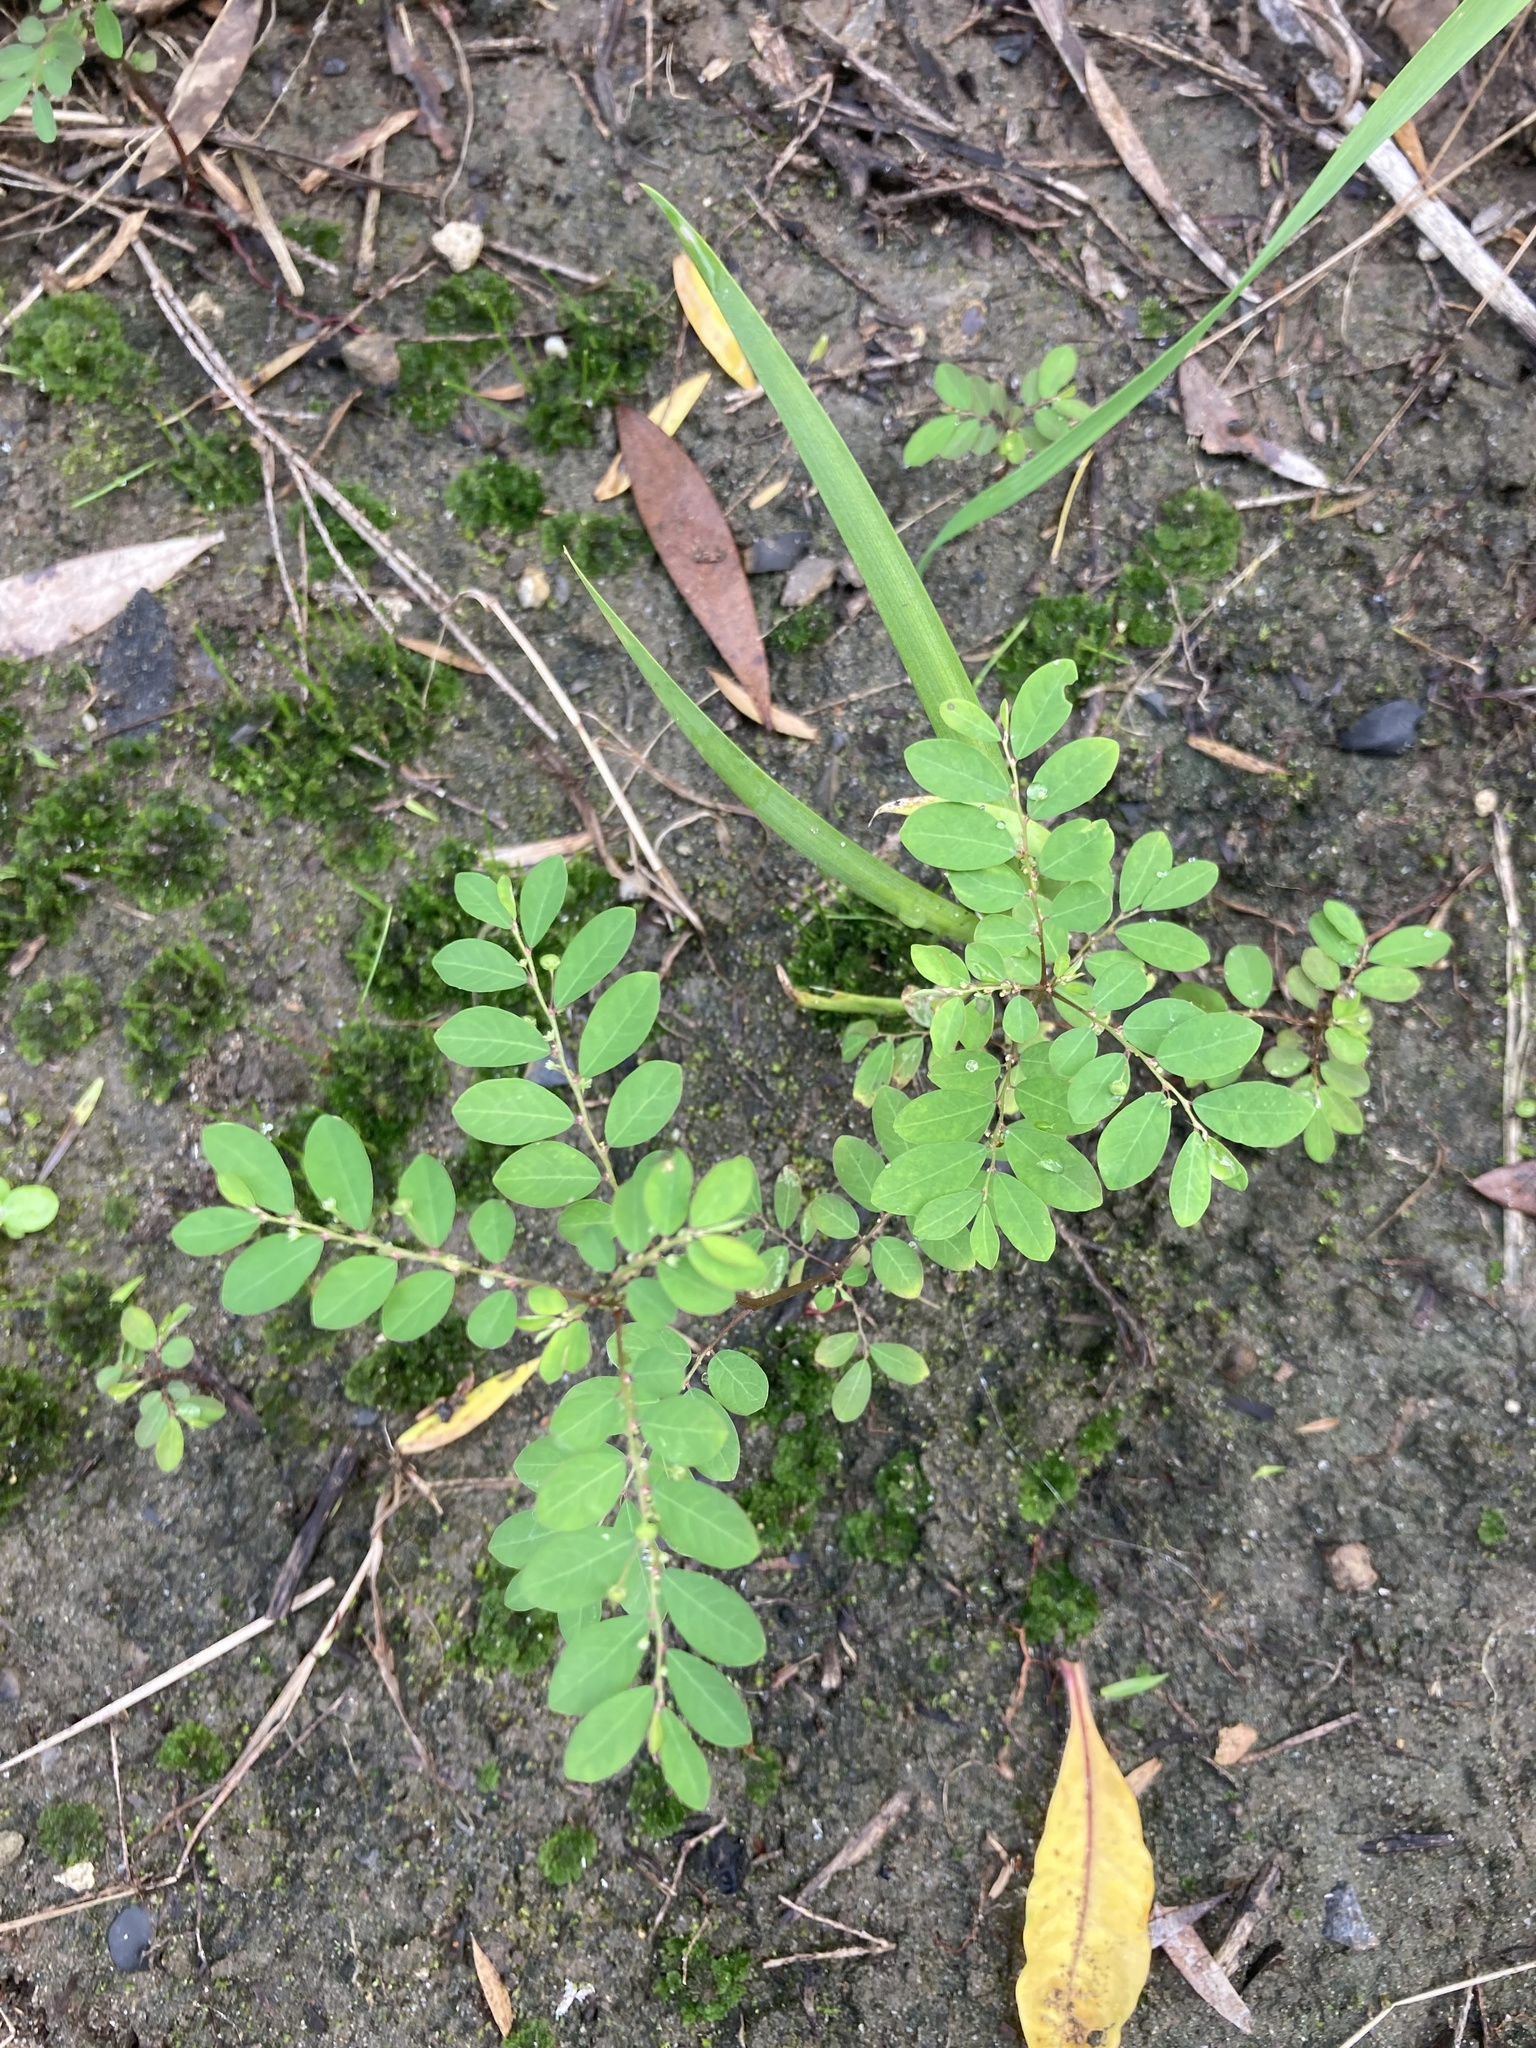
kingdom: Plantae
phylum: Tracheophyta
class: Magnoliopsida
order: Malpighiales
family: Phyllanthaceae
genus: Phyllanthus
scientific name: Phyllanthus tenellus
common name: Mascarene island leaf-flower
